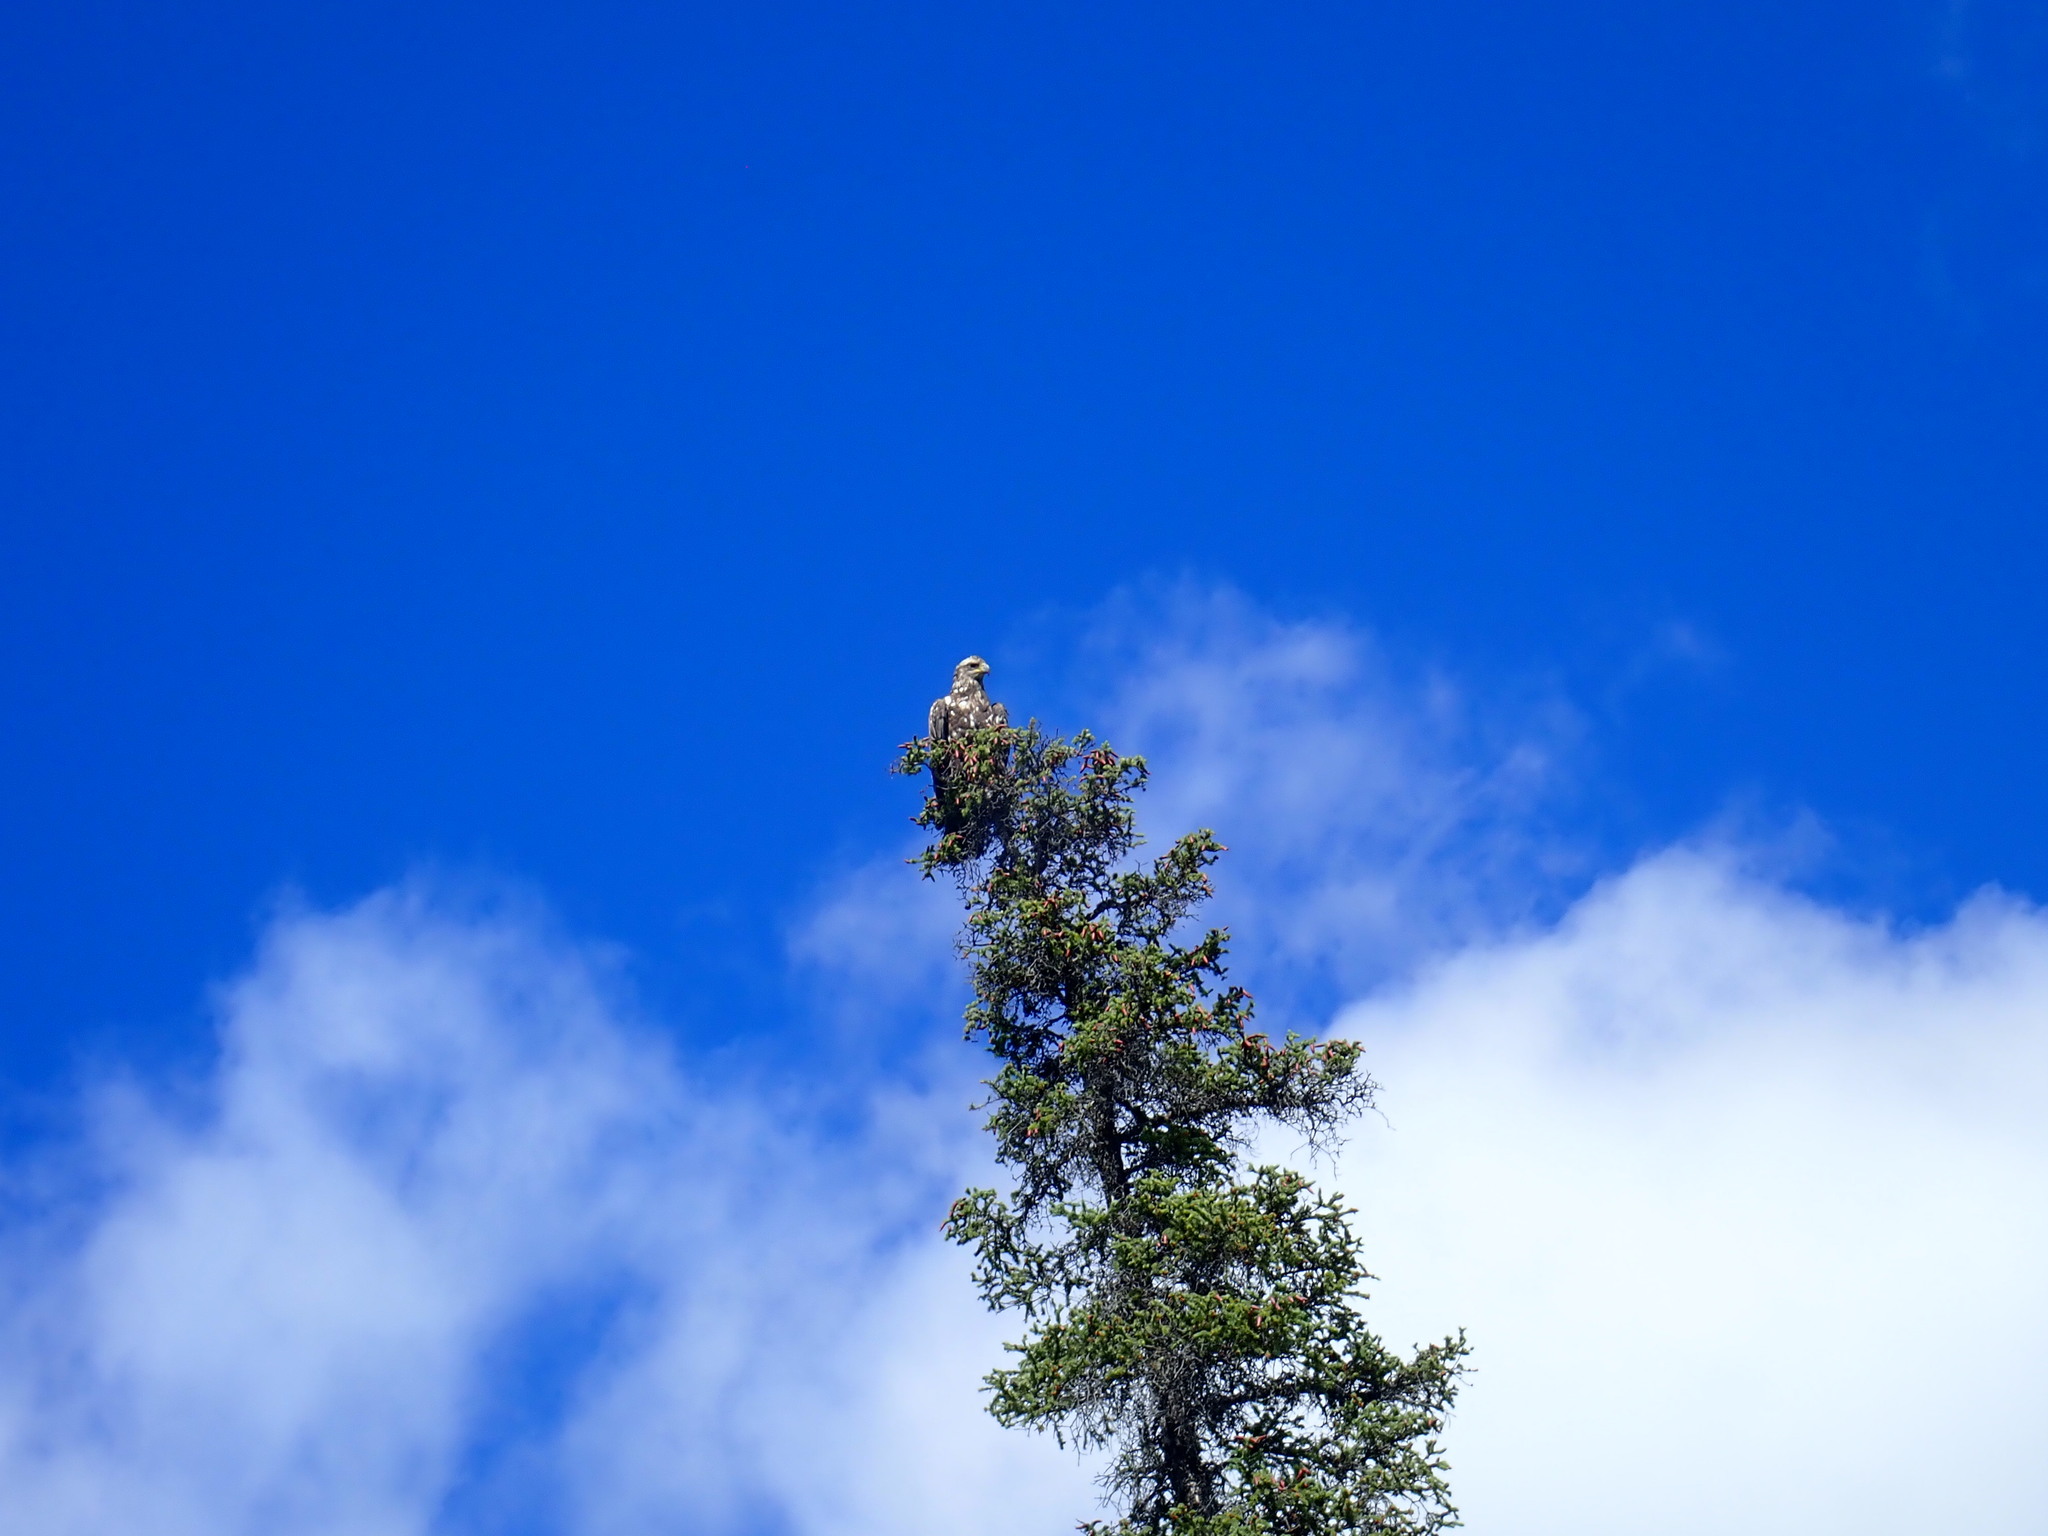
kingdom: Animalia
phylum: Chordata
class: Aves
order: Accipitriformes
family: Accipitridae
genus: Haliaeetus
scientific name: Haliaeetus leucocephalus
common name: Bald eagle
